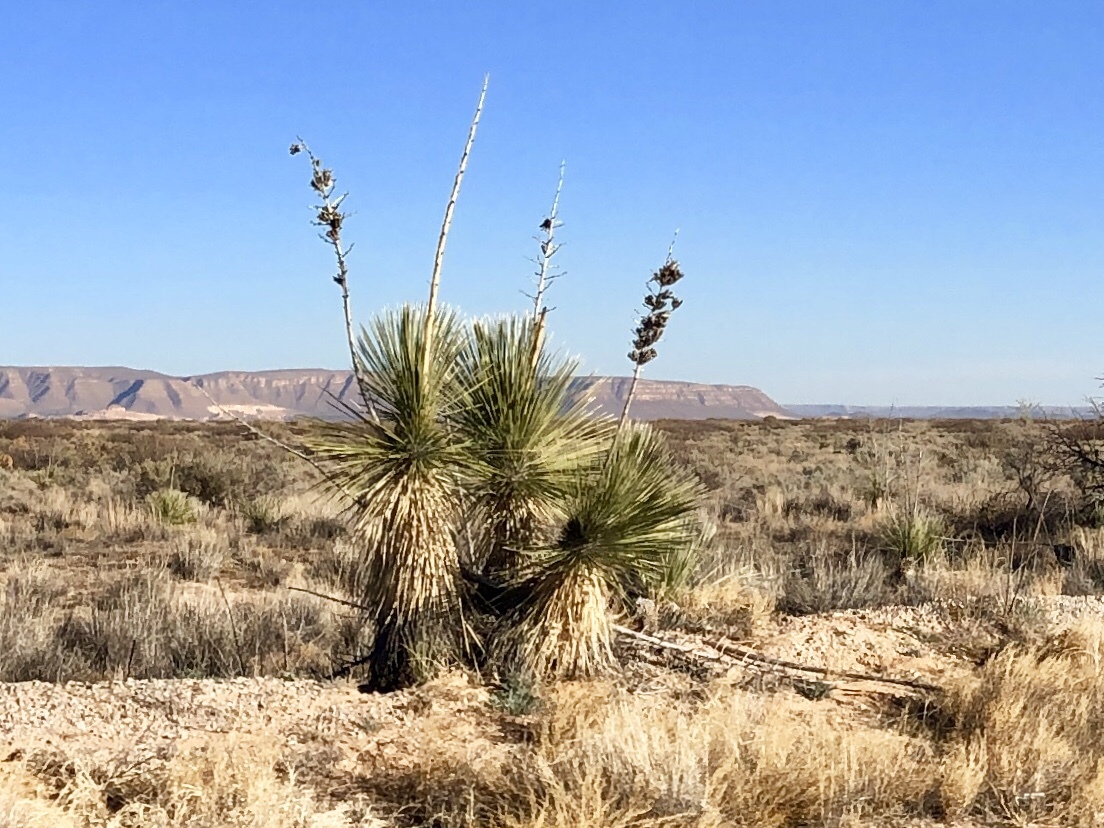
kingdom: Plantae
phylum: Tracheophyta
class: Liliopsida
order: Asparagales
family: Asparagaceae
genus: Yucca
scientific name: Yucca elata
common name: Palmella
